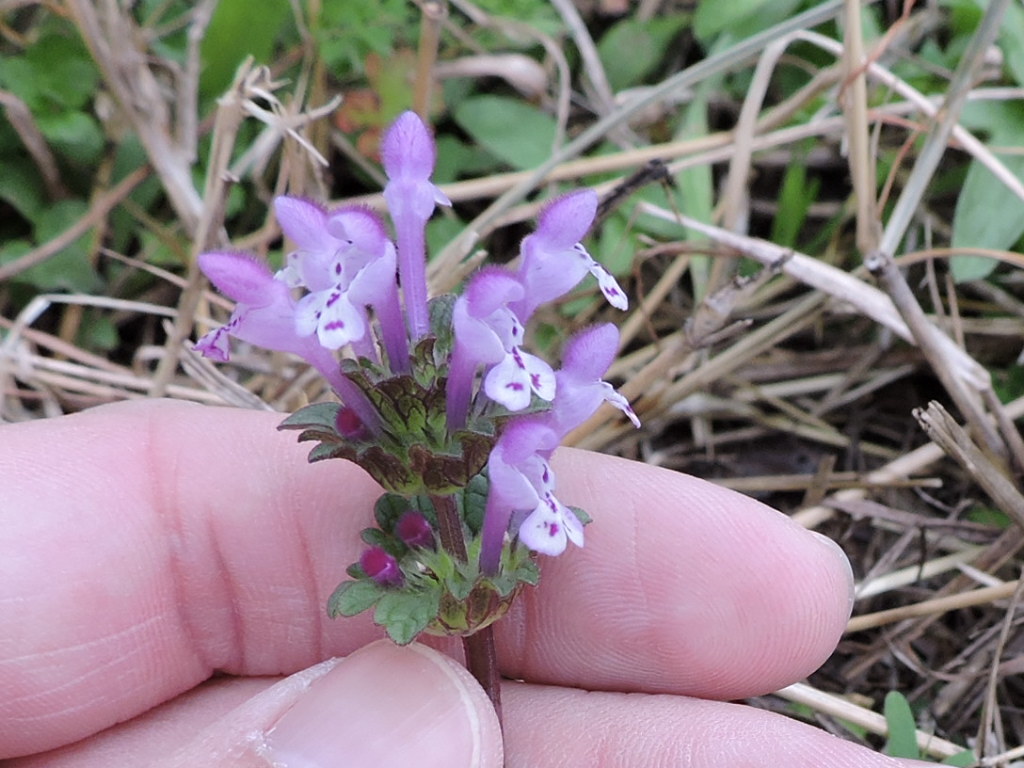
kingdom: Plantae
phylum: Tracheophyta
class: Magnoliopsida
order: Lamiales
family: Lamiaceae
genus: Lamium
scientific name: Lamium amplexicaule
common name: Henbit dead-nettle
